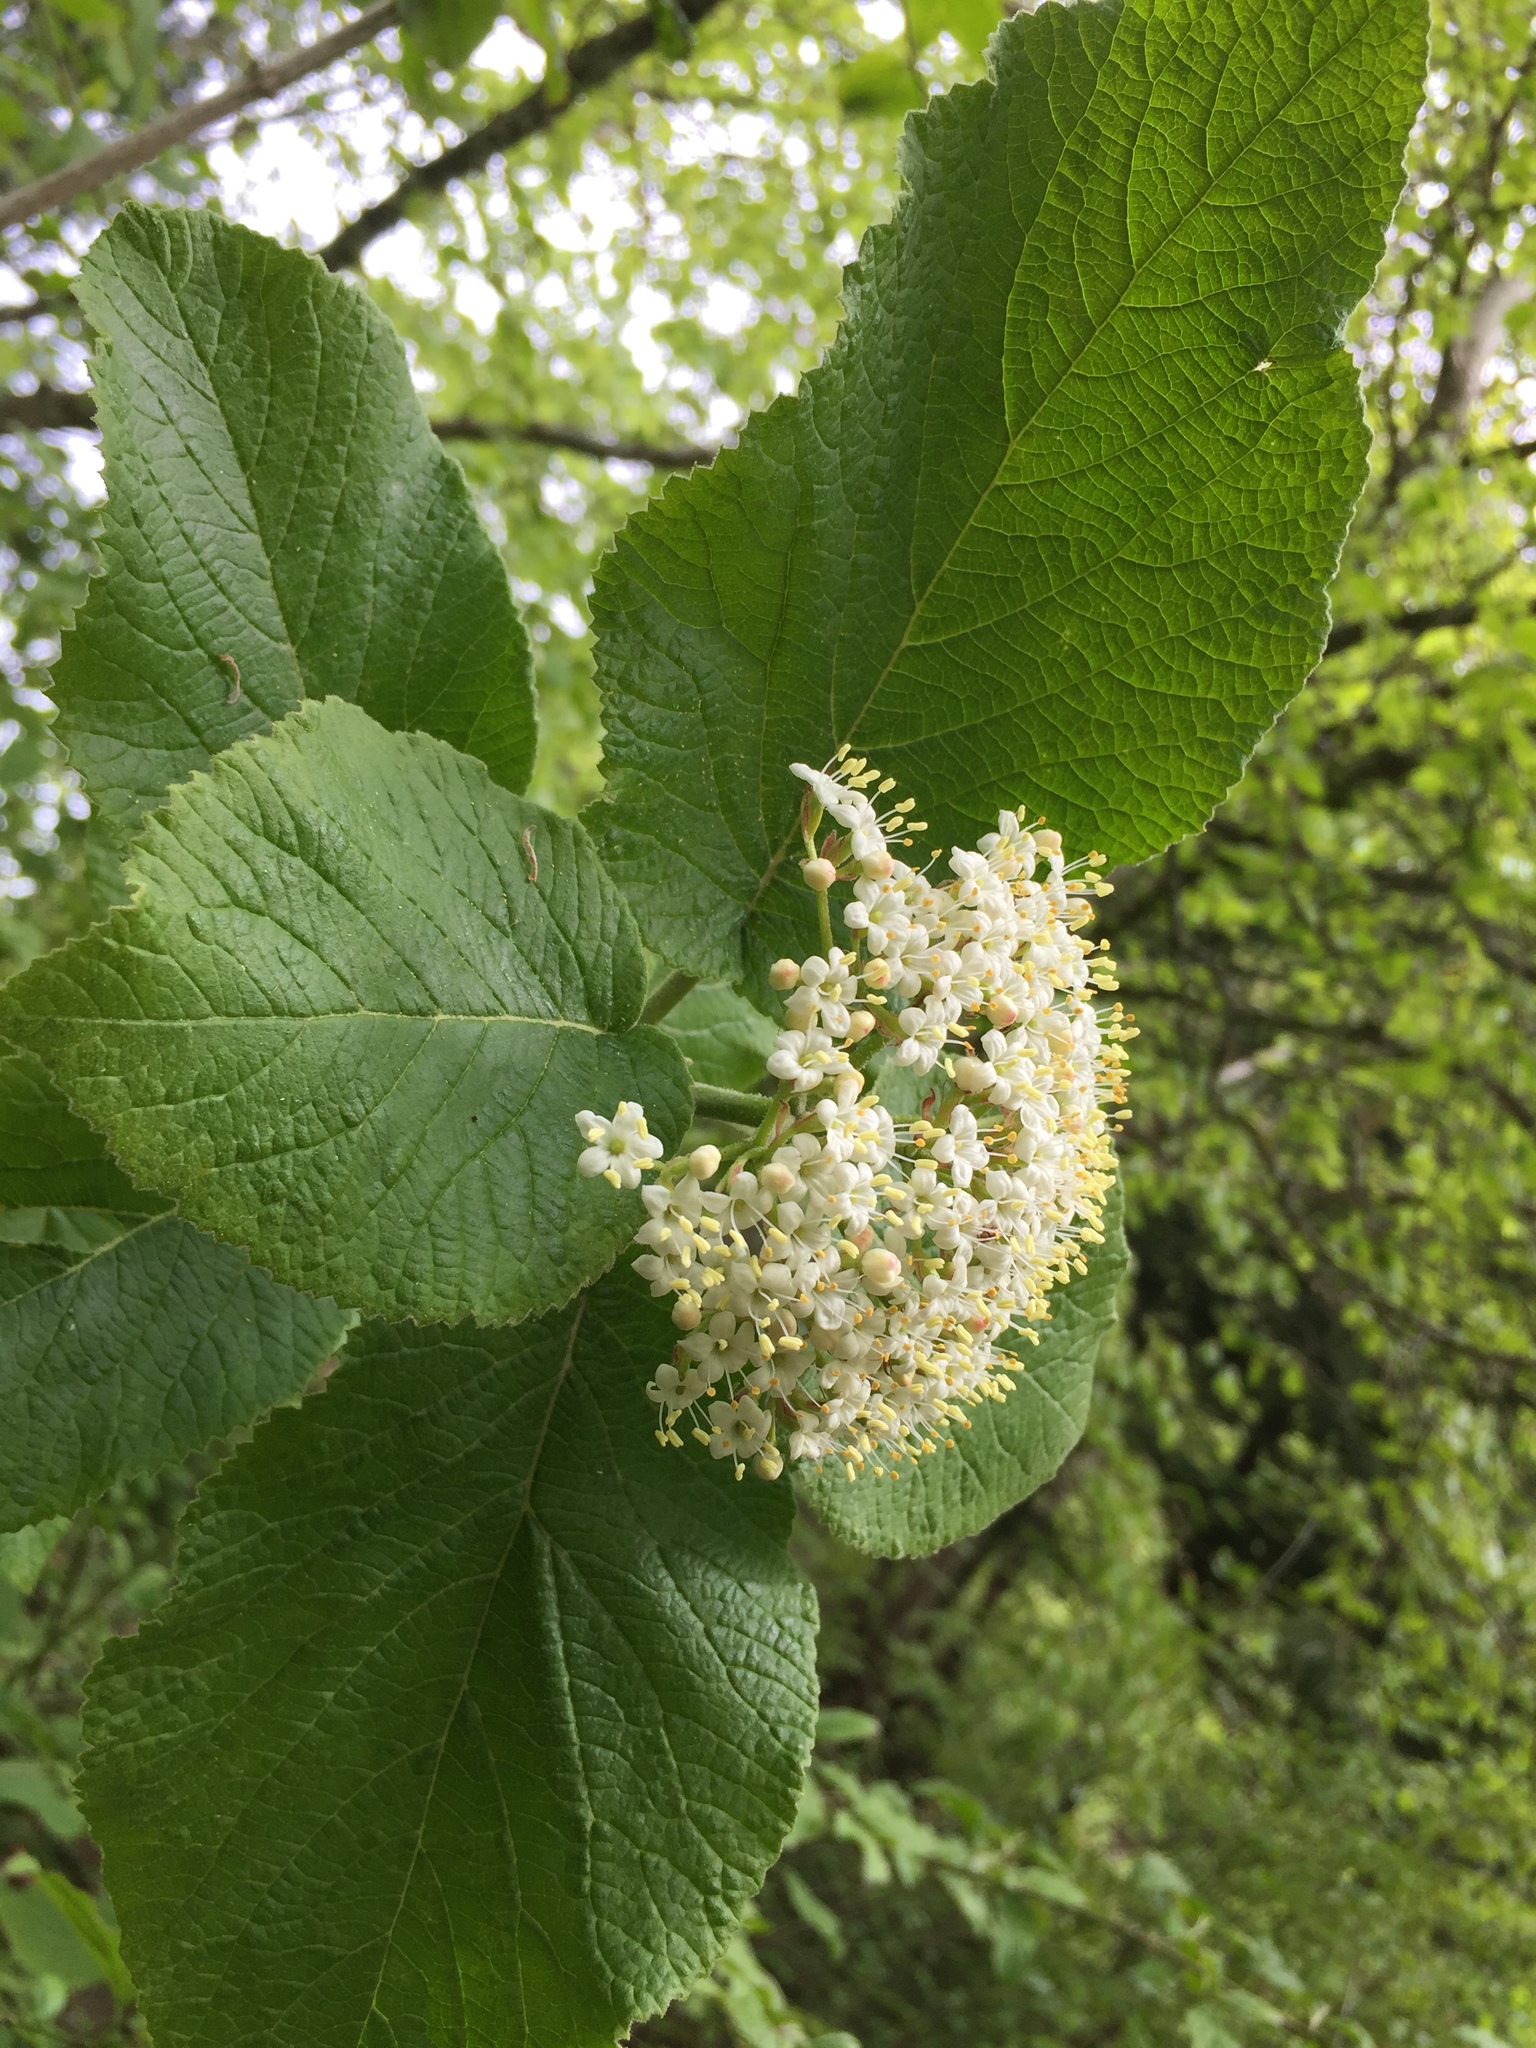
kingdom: Plantae
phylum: Tracheophyta
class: Magnoliopsida
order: Dipsacales
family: Viburnaceae
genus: Viburnum
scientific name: Viburnum lantana
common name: Wayfaring tree
